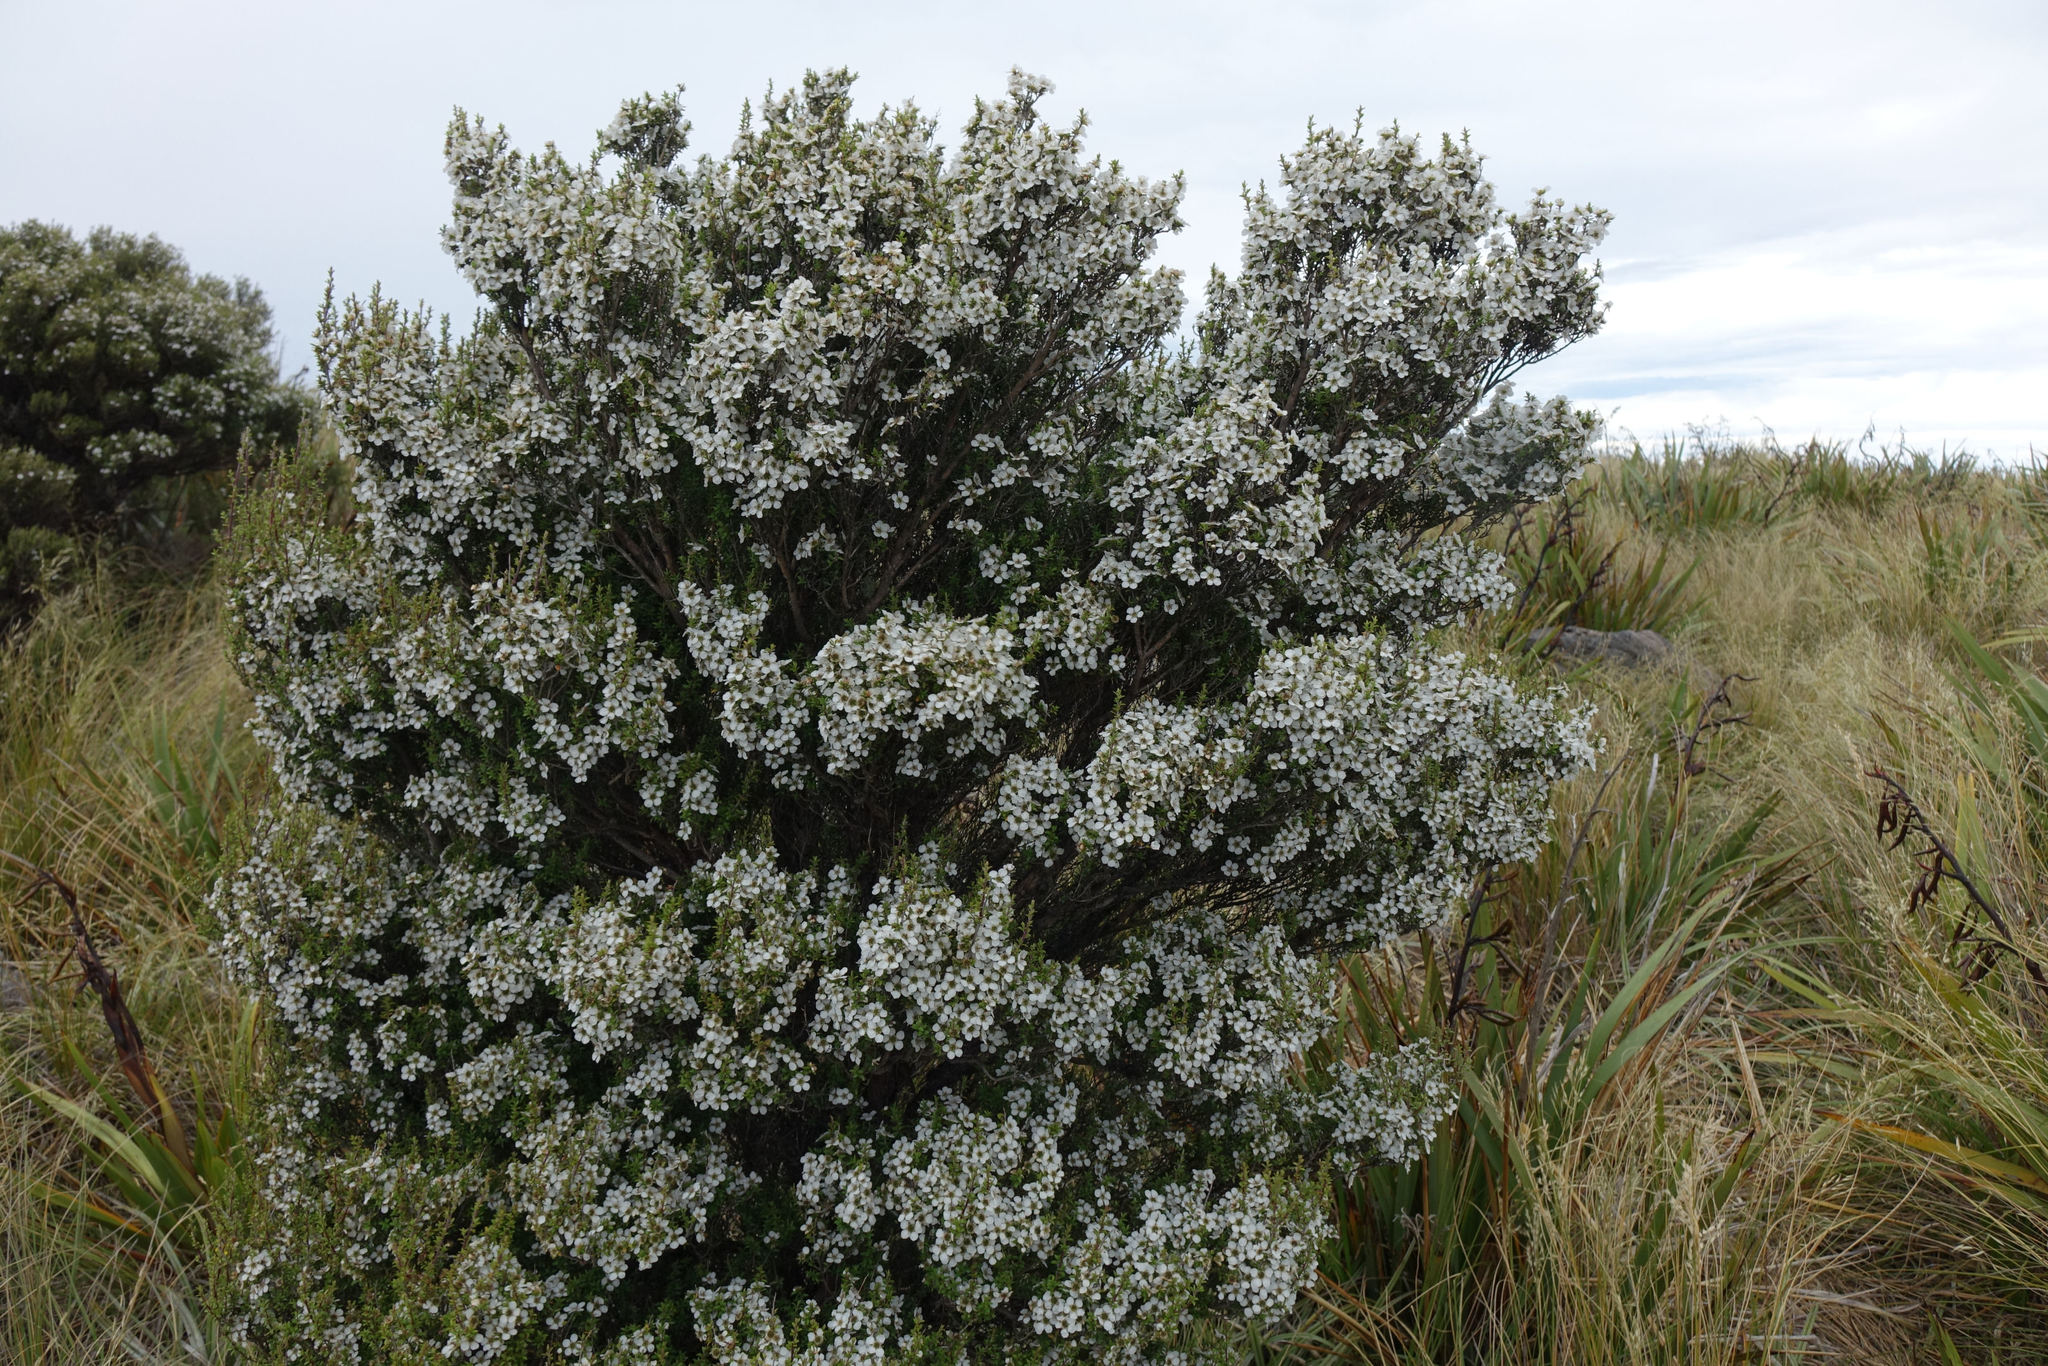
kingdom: Plantae
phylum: Tracheophyta
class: Magnoliopsida
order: Myrtales
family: Myrtaceae
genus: Leptospermum
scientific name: Leptospermum scoparium
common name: Broom tea-tree
